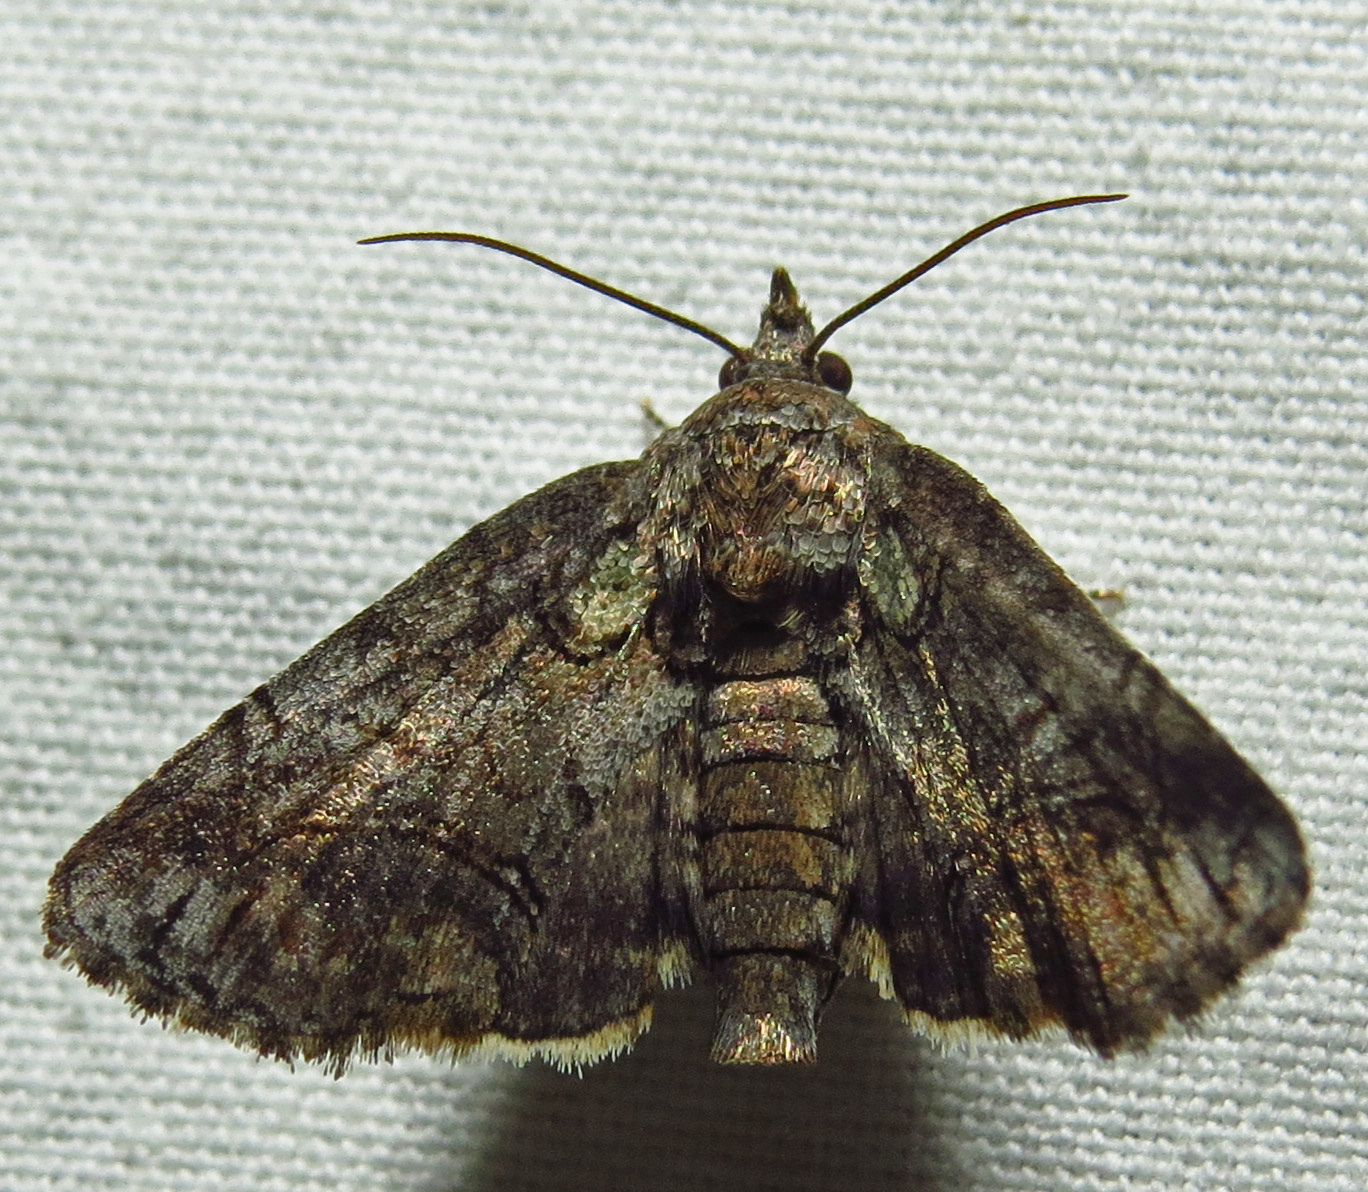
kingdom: Animalia
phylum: Arthropoda
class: Insecta
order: Lepidoptera
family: Euteliidae
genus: Paectes
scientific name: Paectes abrostoloides
